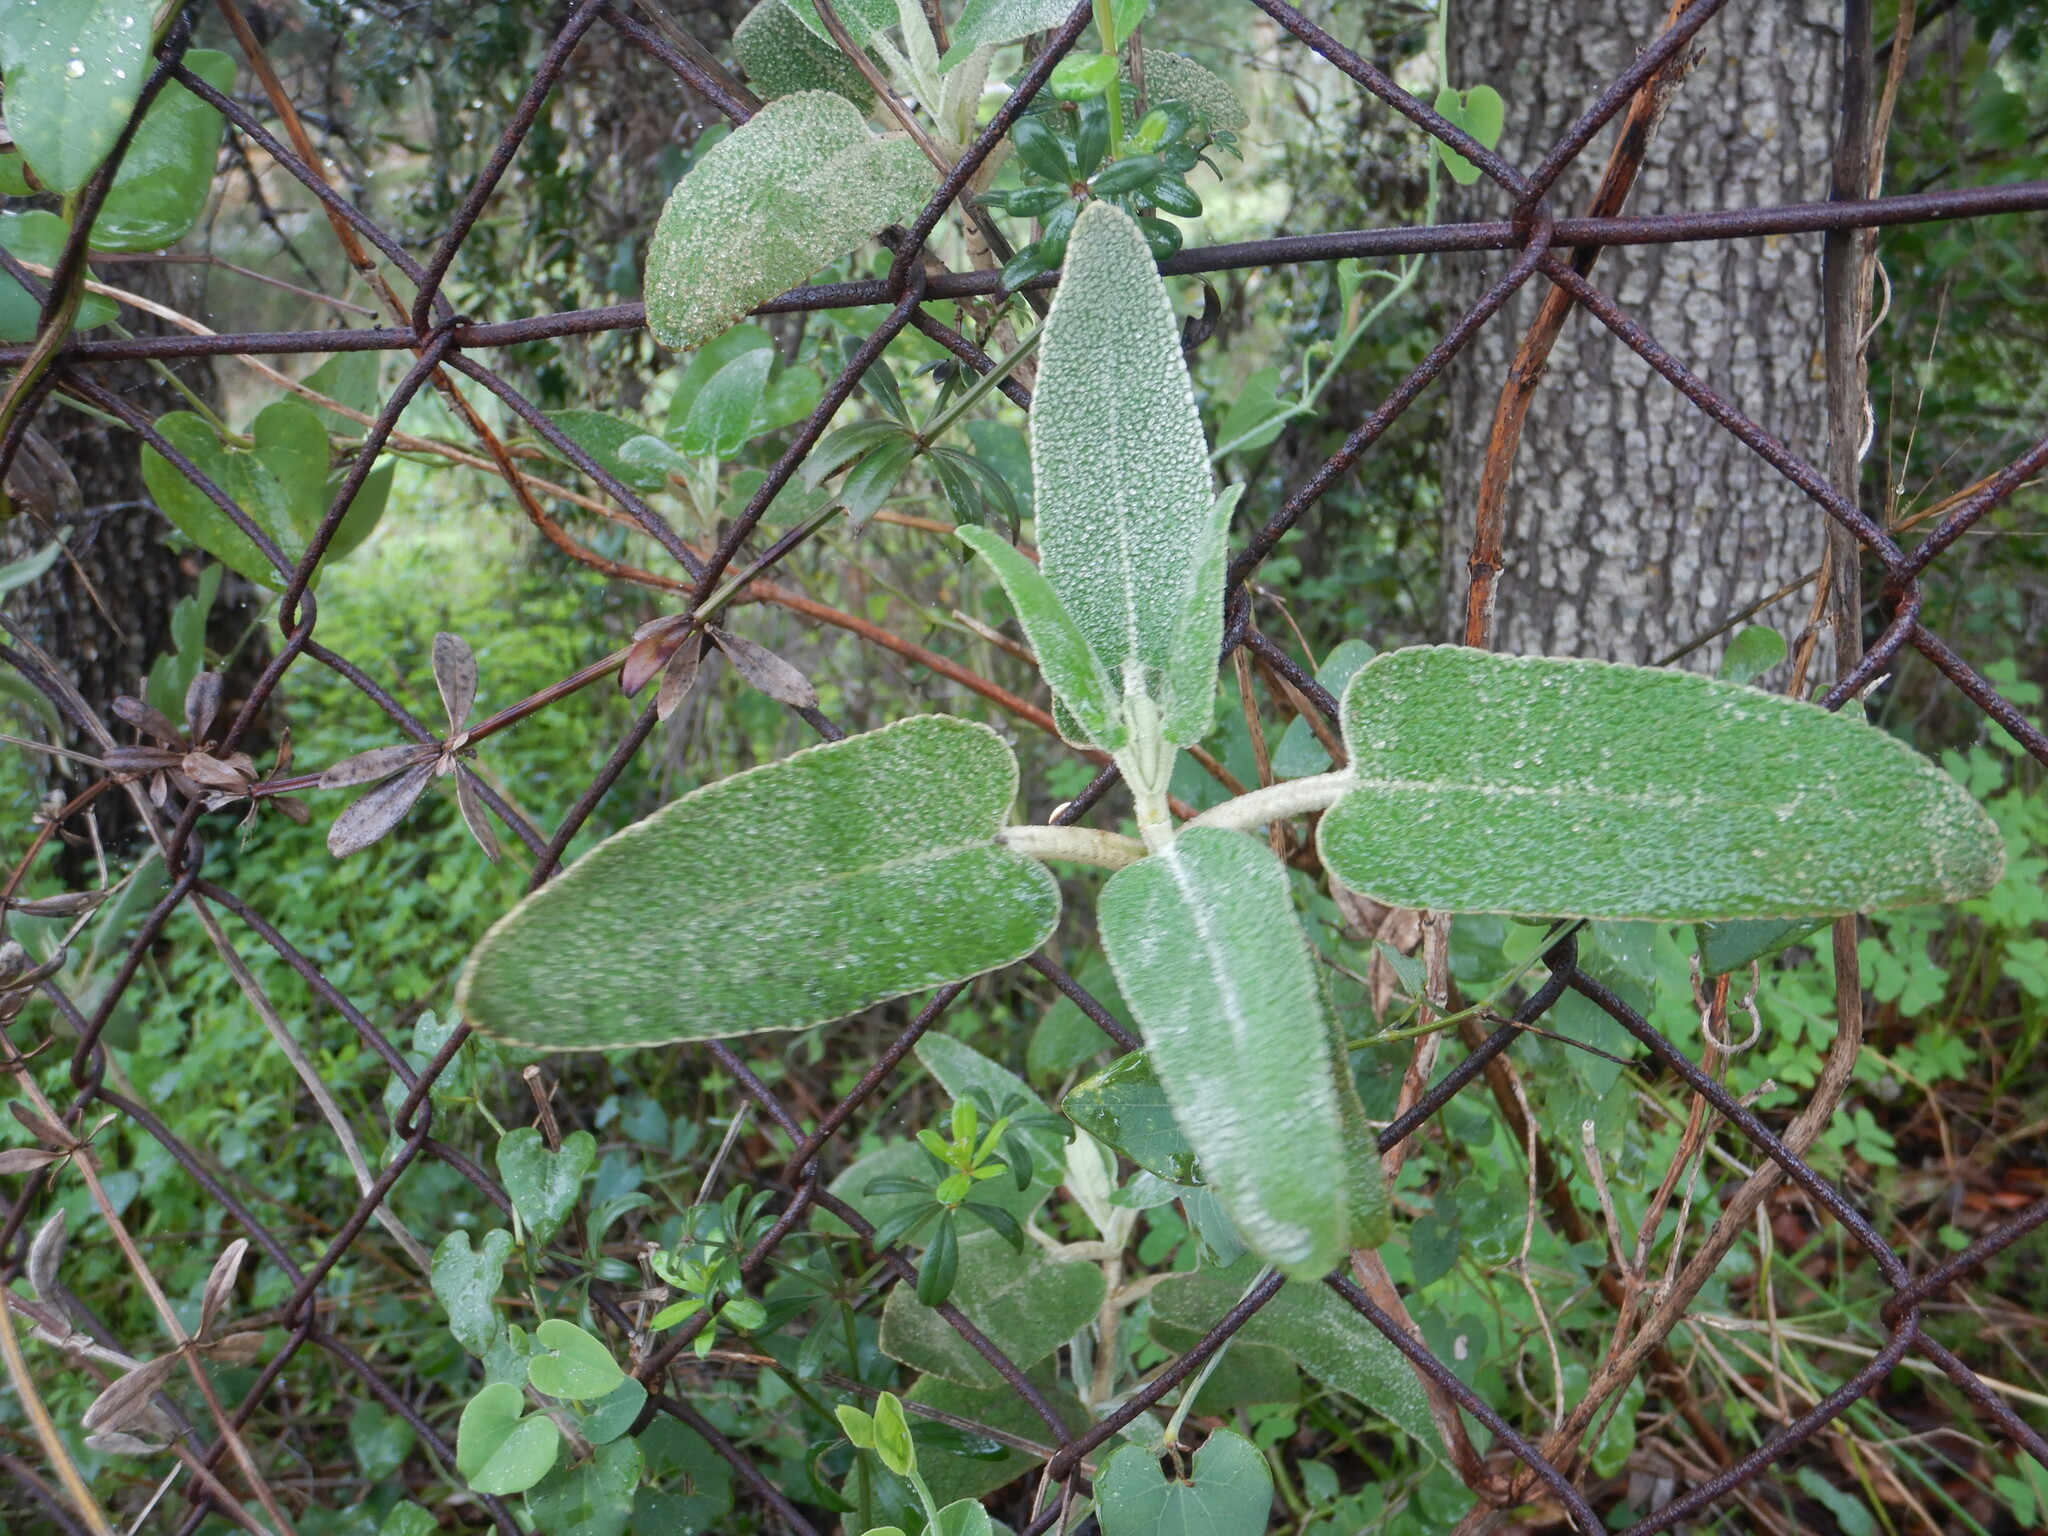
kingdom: Plantae
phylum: Tracheophyta
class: Magnoliopsida
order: Lamiales
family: Lamiaceae
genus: Phlomis
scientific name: Phlomis purpurea
